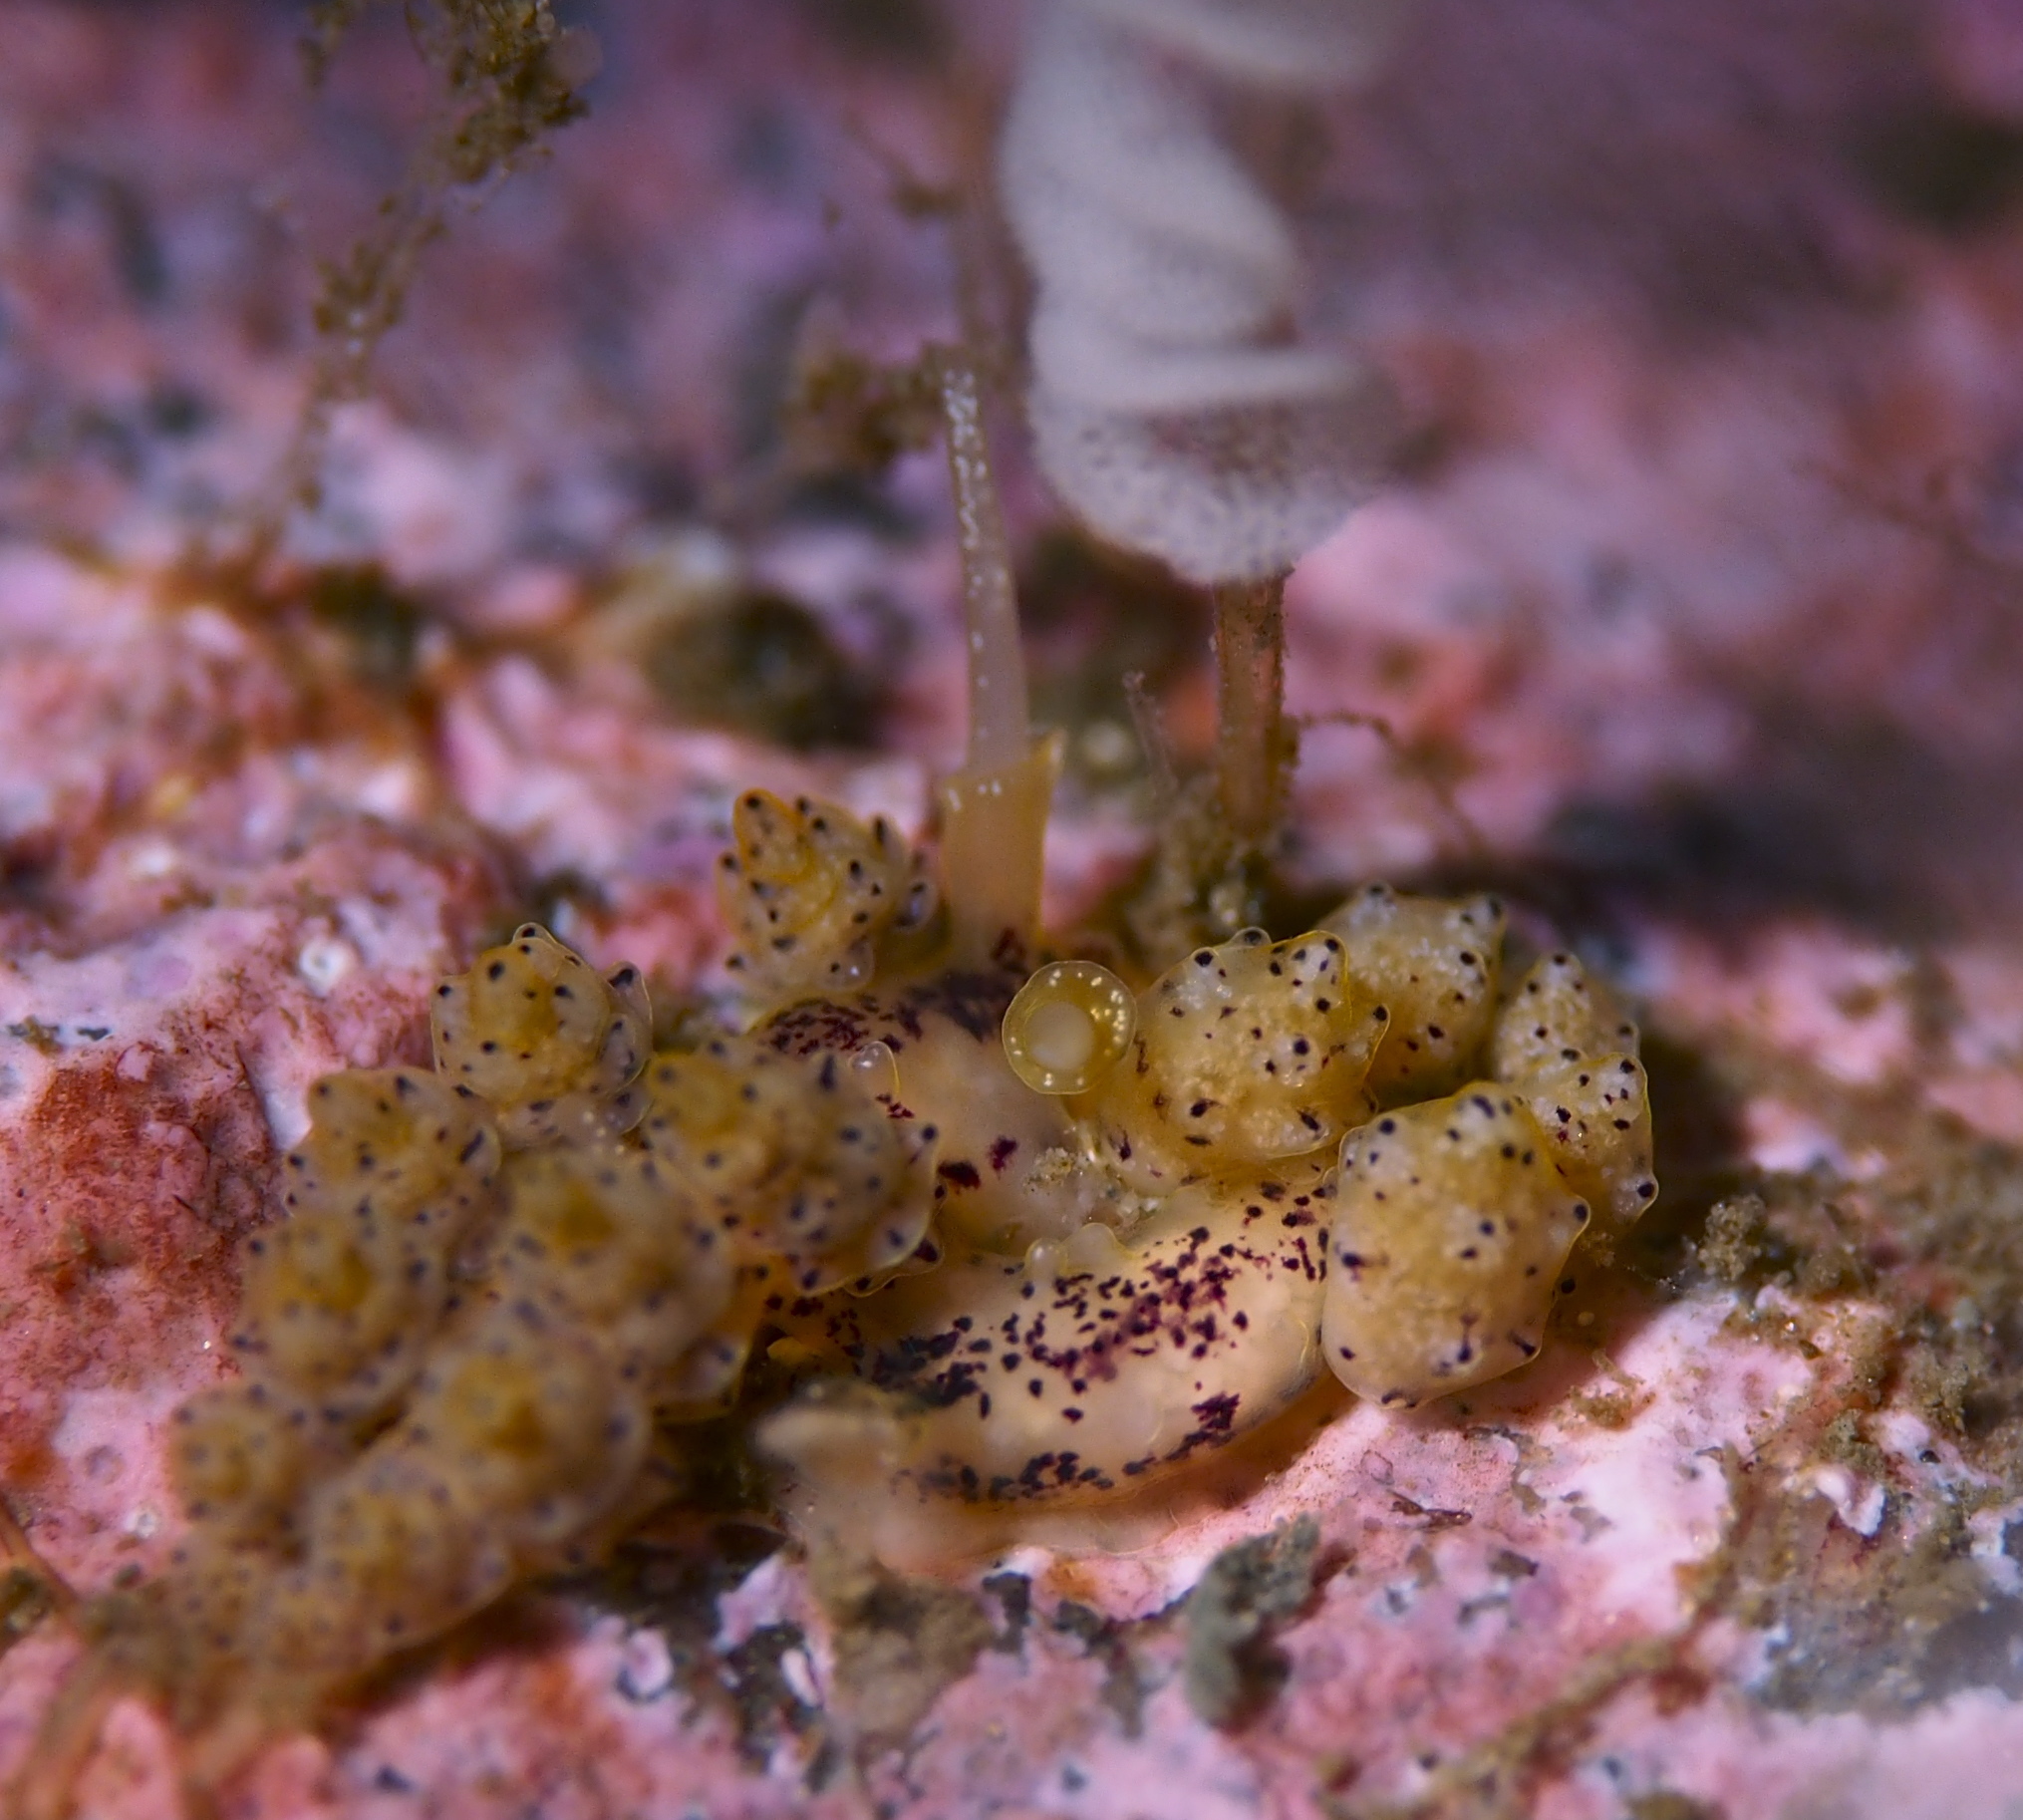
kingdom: Animalia
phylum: Mollusca
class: Gastropoda
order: Nudibranchia
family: Dotidae
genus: Doto
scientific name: Doto dunnei
